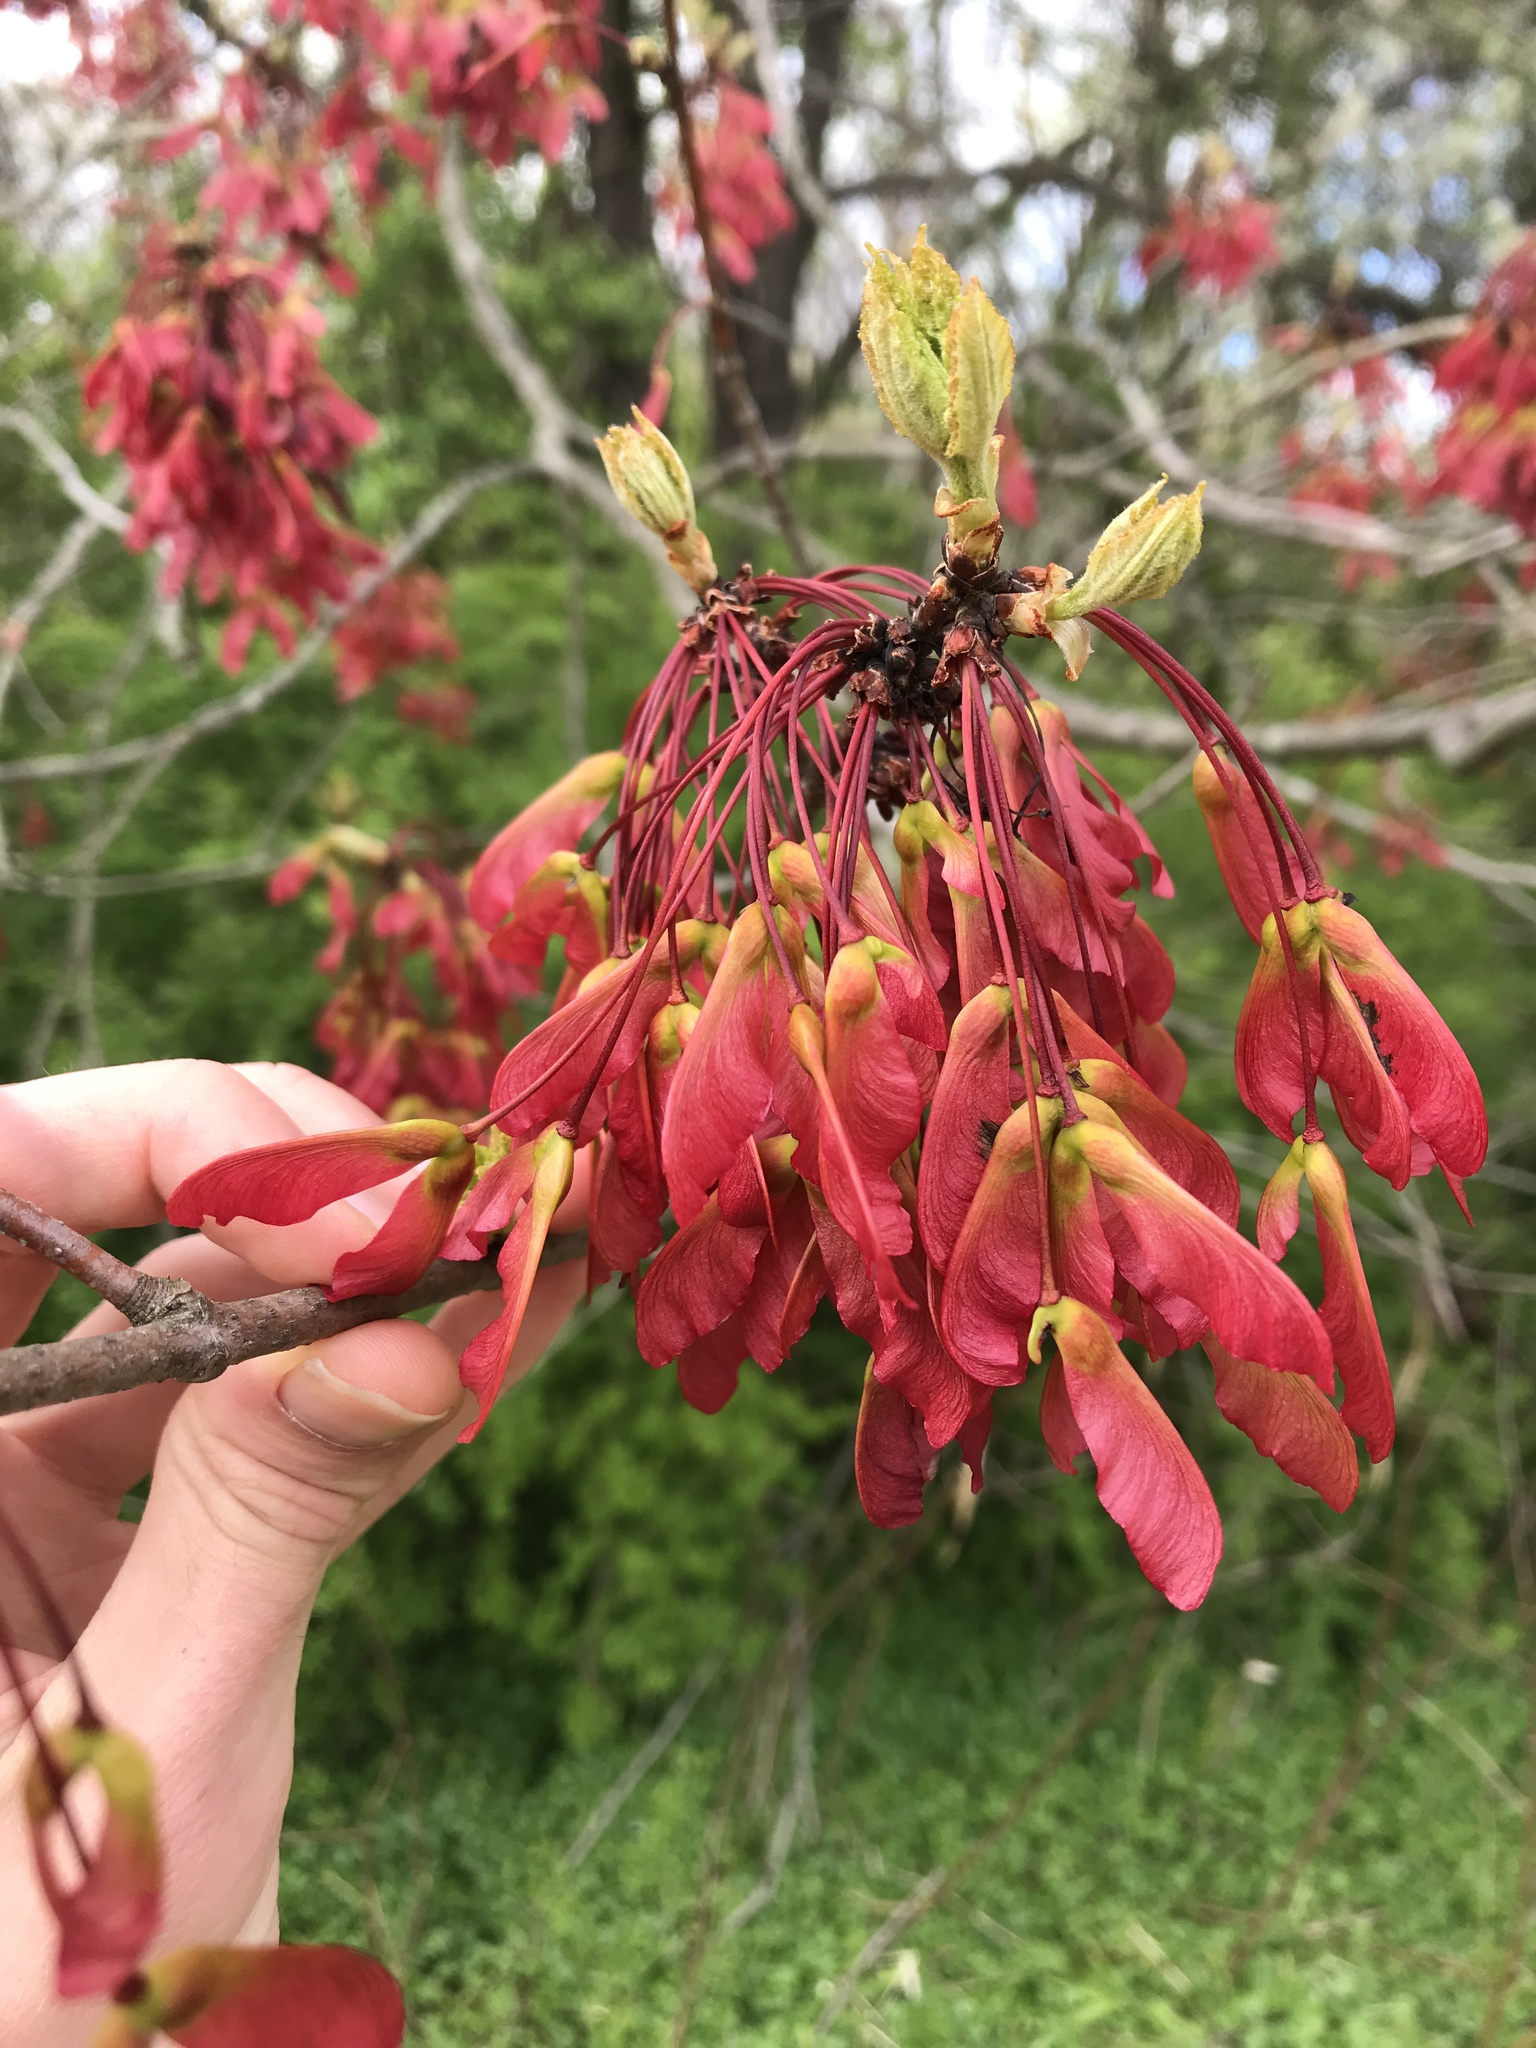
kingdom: Plantae
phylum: Tracheophyta
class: Magnoliopsida
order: Sapindales
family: Sapindaceae
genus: Acer
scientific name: Acer rubrum
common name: Red maple
